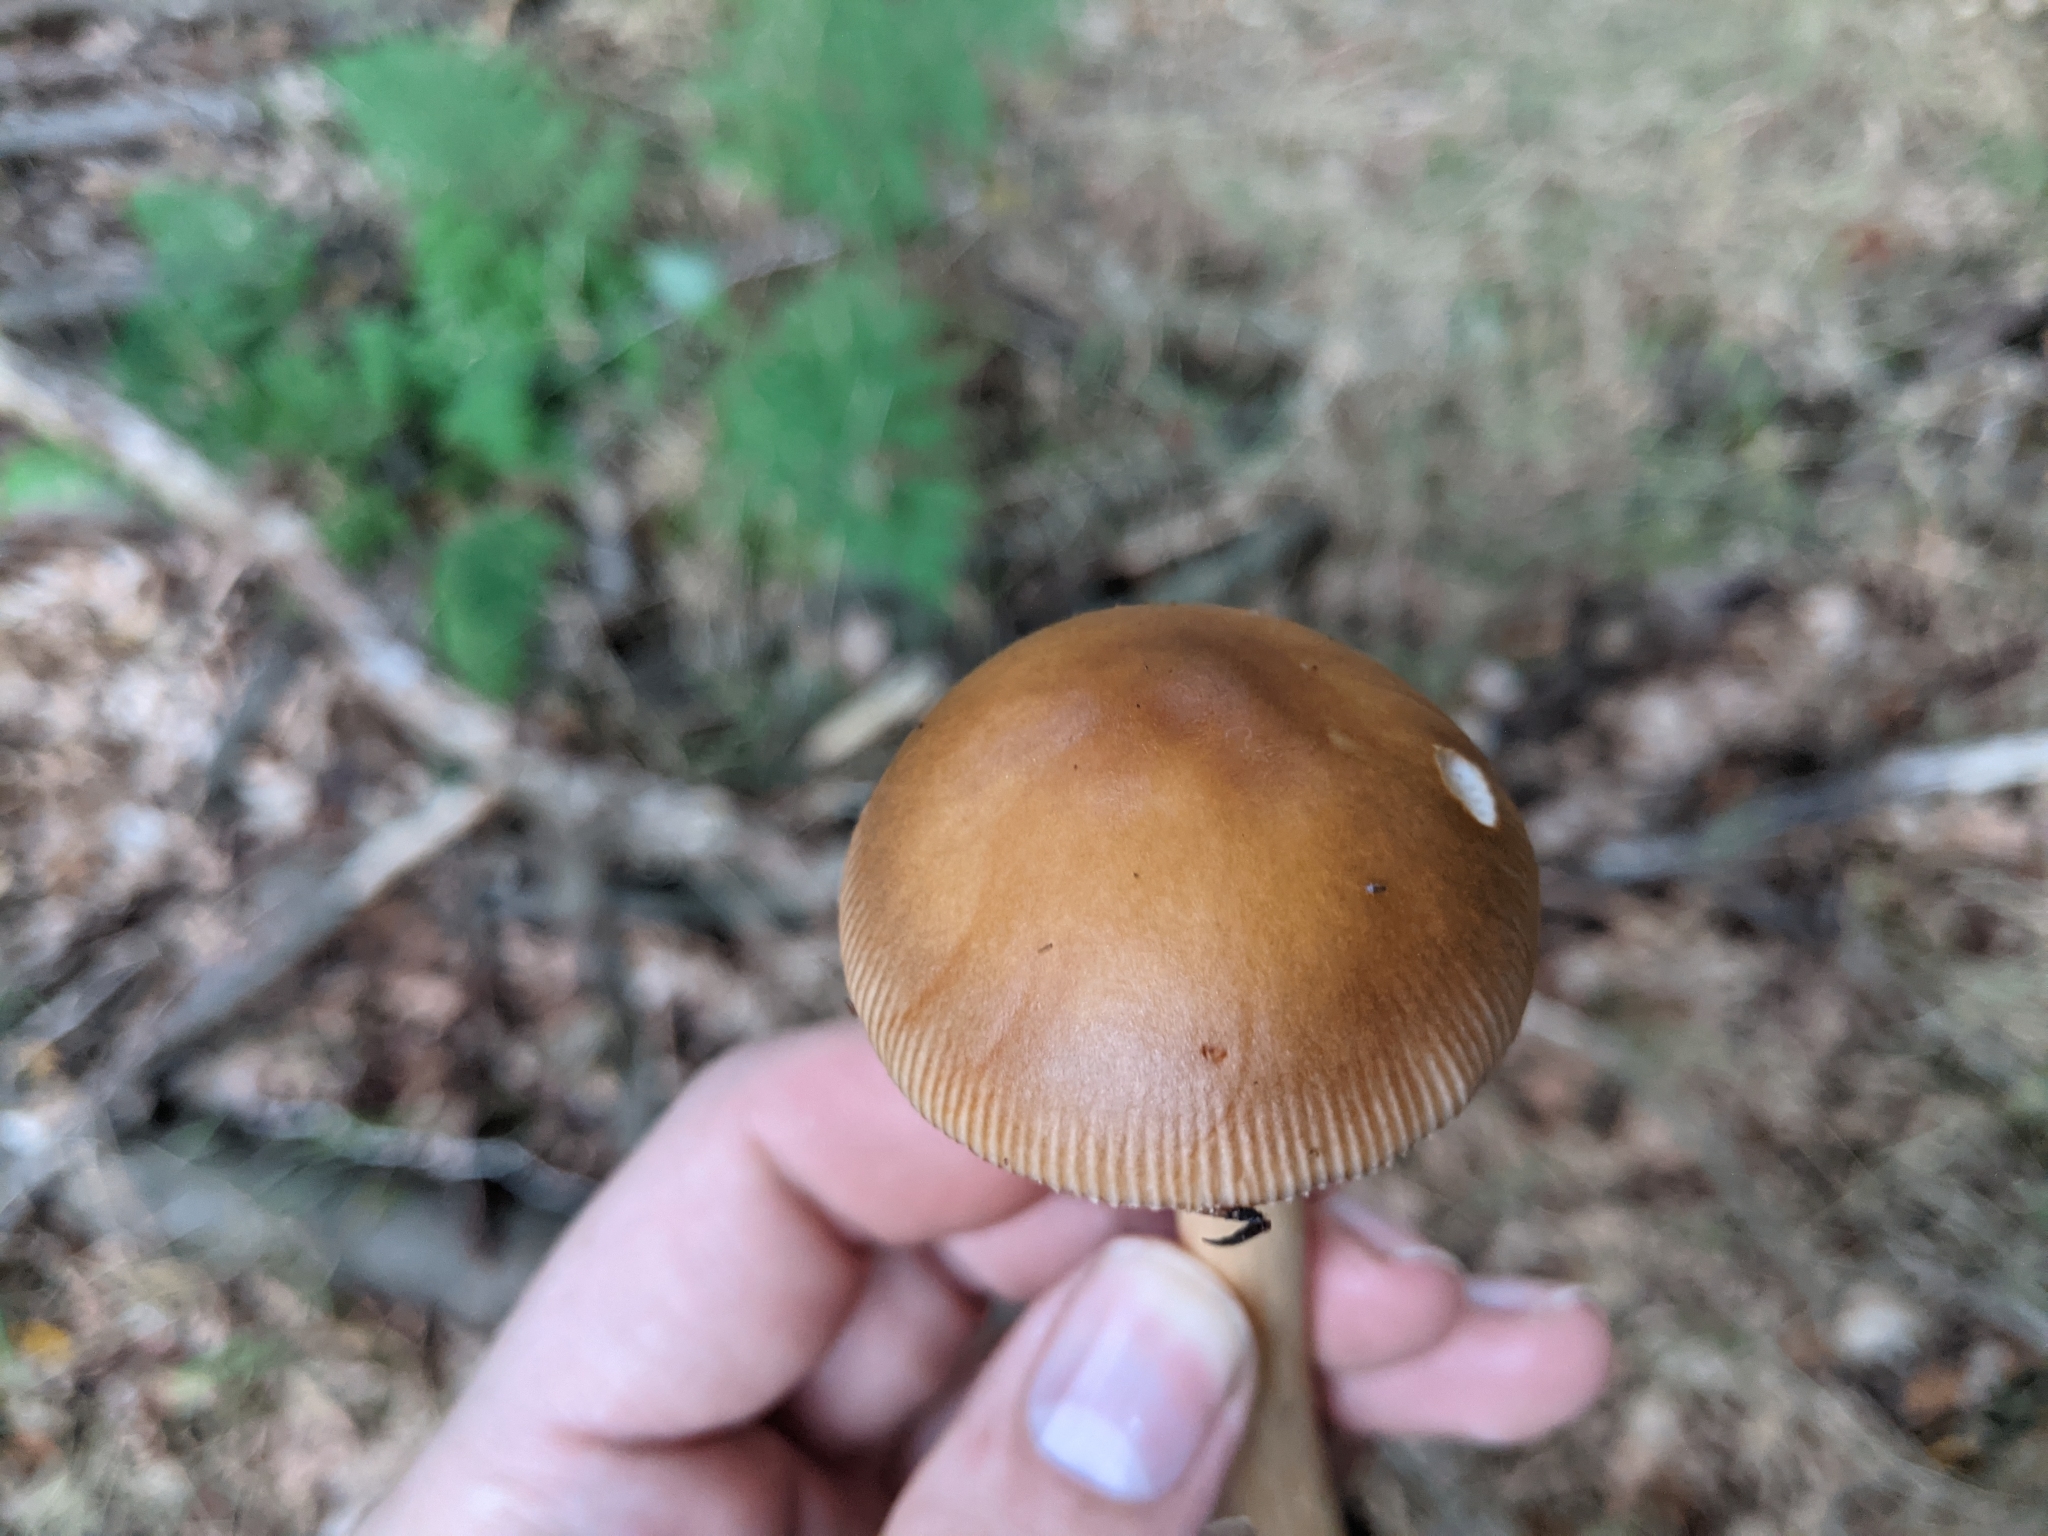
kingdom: Fungi
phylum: Basidiomycota
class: Agaricomycetes
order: Agaricales
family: Amanitaceae
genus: Amanita
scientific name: Amanita fulva
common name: Tawny grisette
